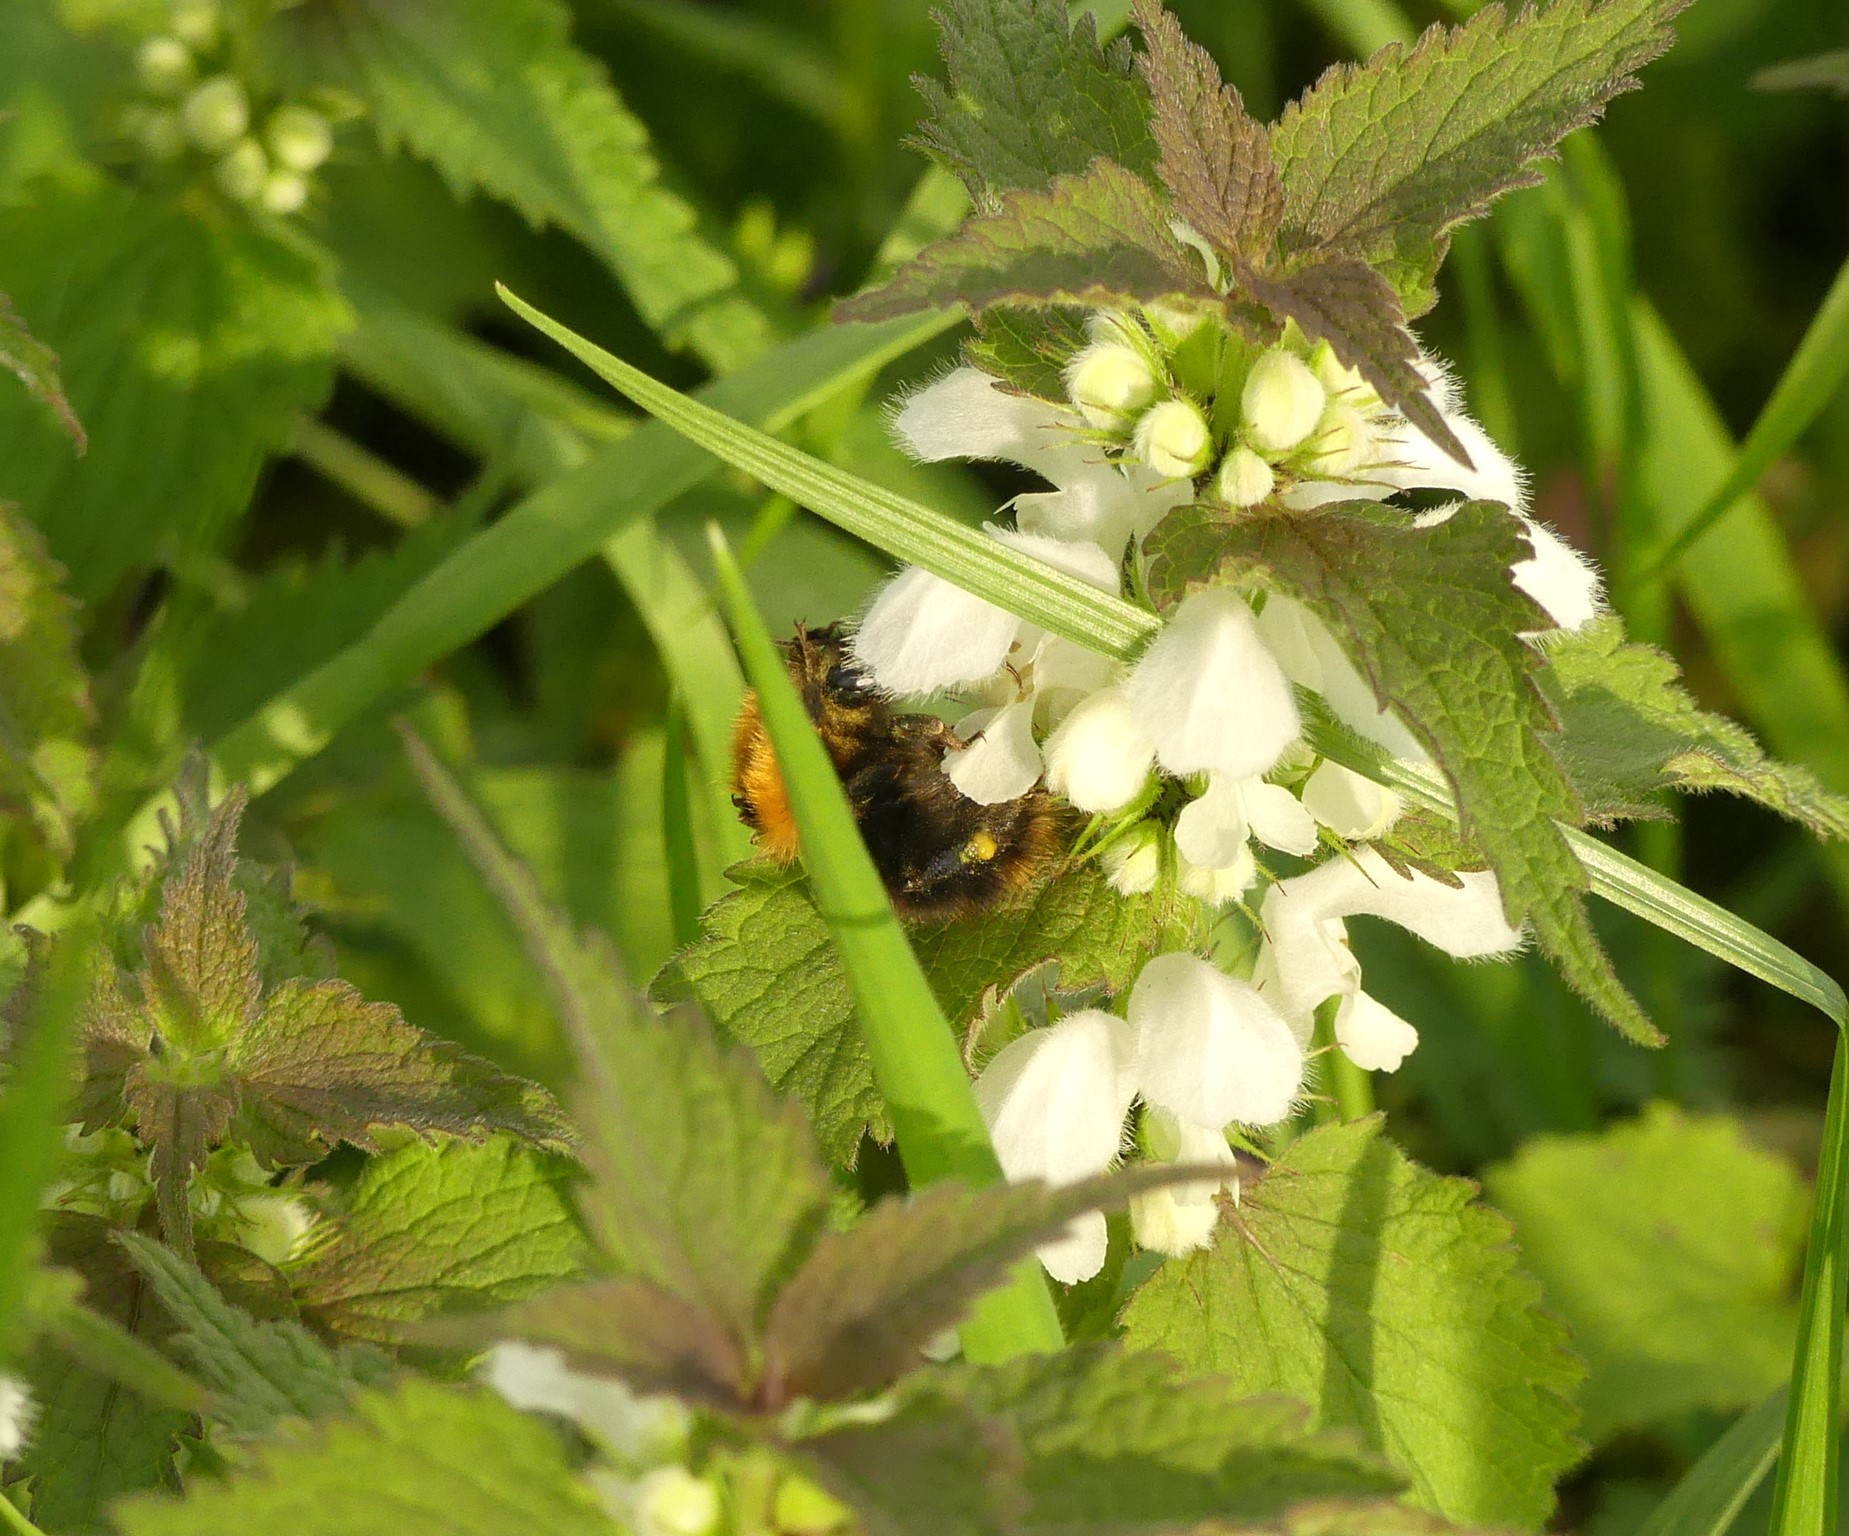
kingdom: Animalia
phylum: Arthropoda
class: Insecta
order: Hymenoptera
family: Apidae
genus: Bombus
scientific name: Bombus pascuorum
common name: Common carder bee
